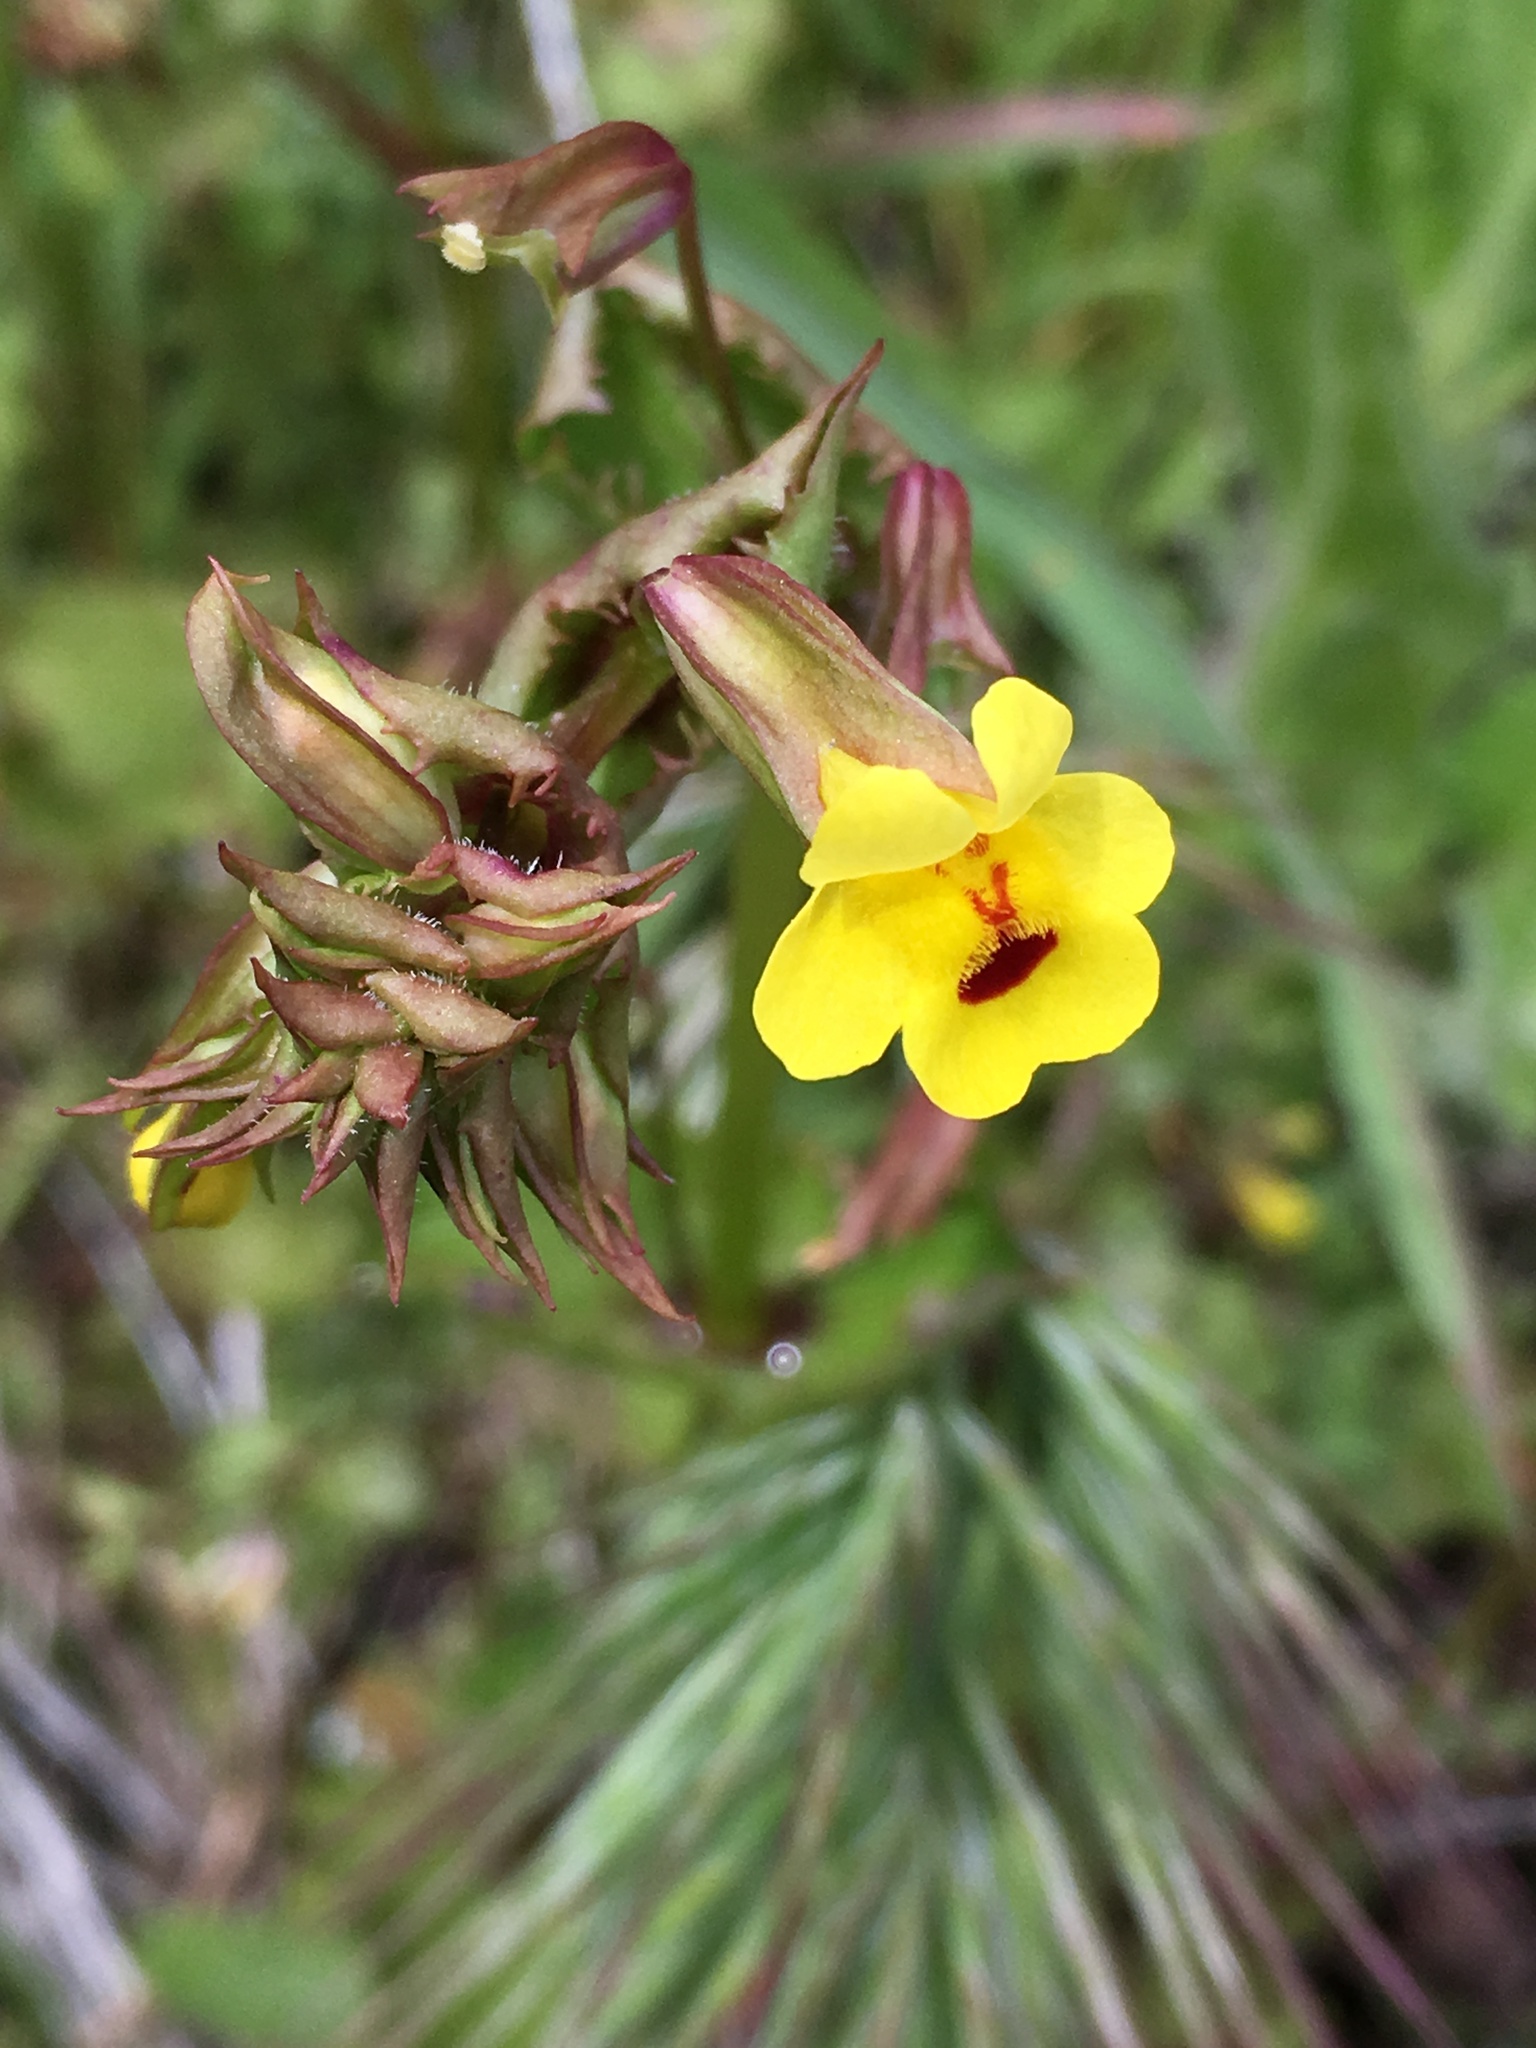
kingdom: Plantae
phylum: Tracheophyta
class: Magnoliopsida
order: Lamiales
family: Phrymaceae
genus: Erythranthe
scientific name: Erythranthe nasuta
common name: Sooke monkeyflower
